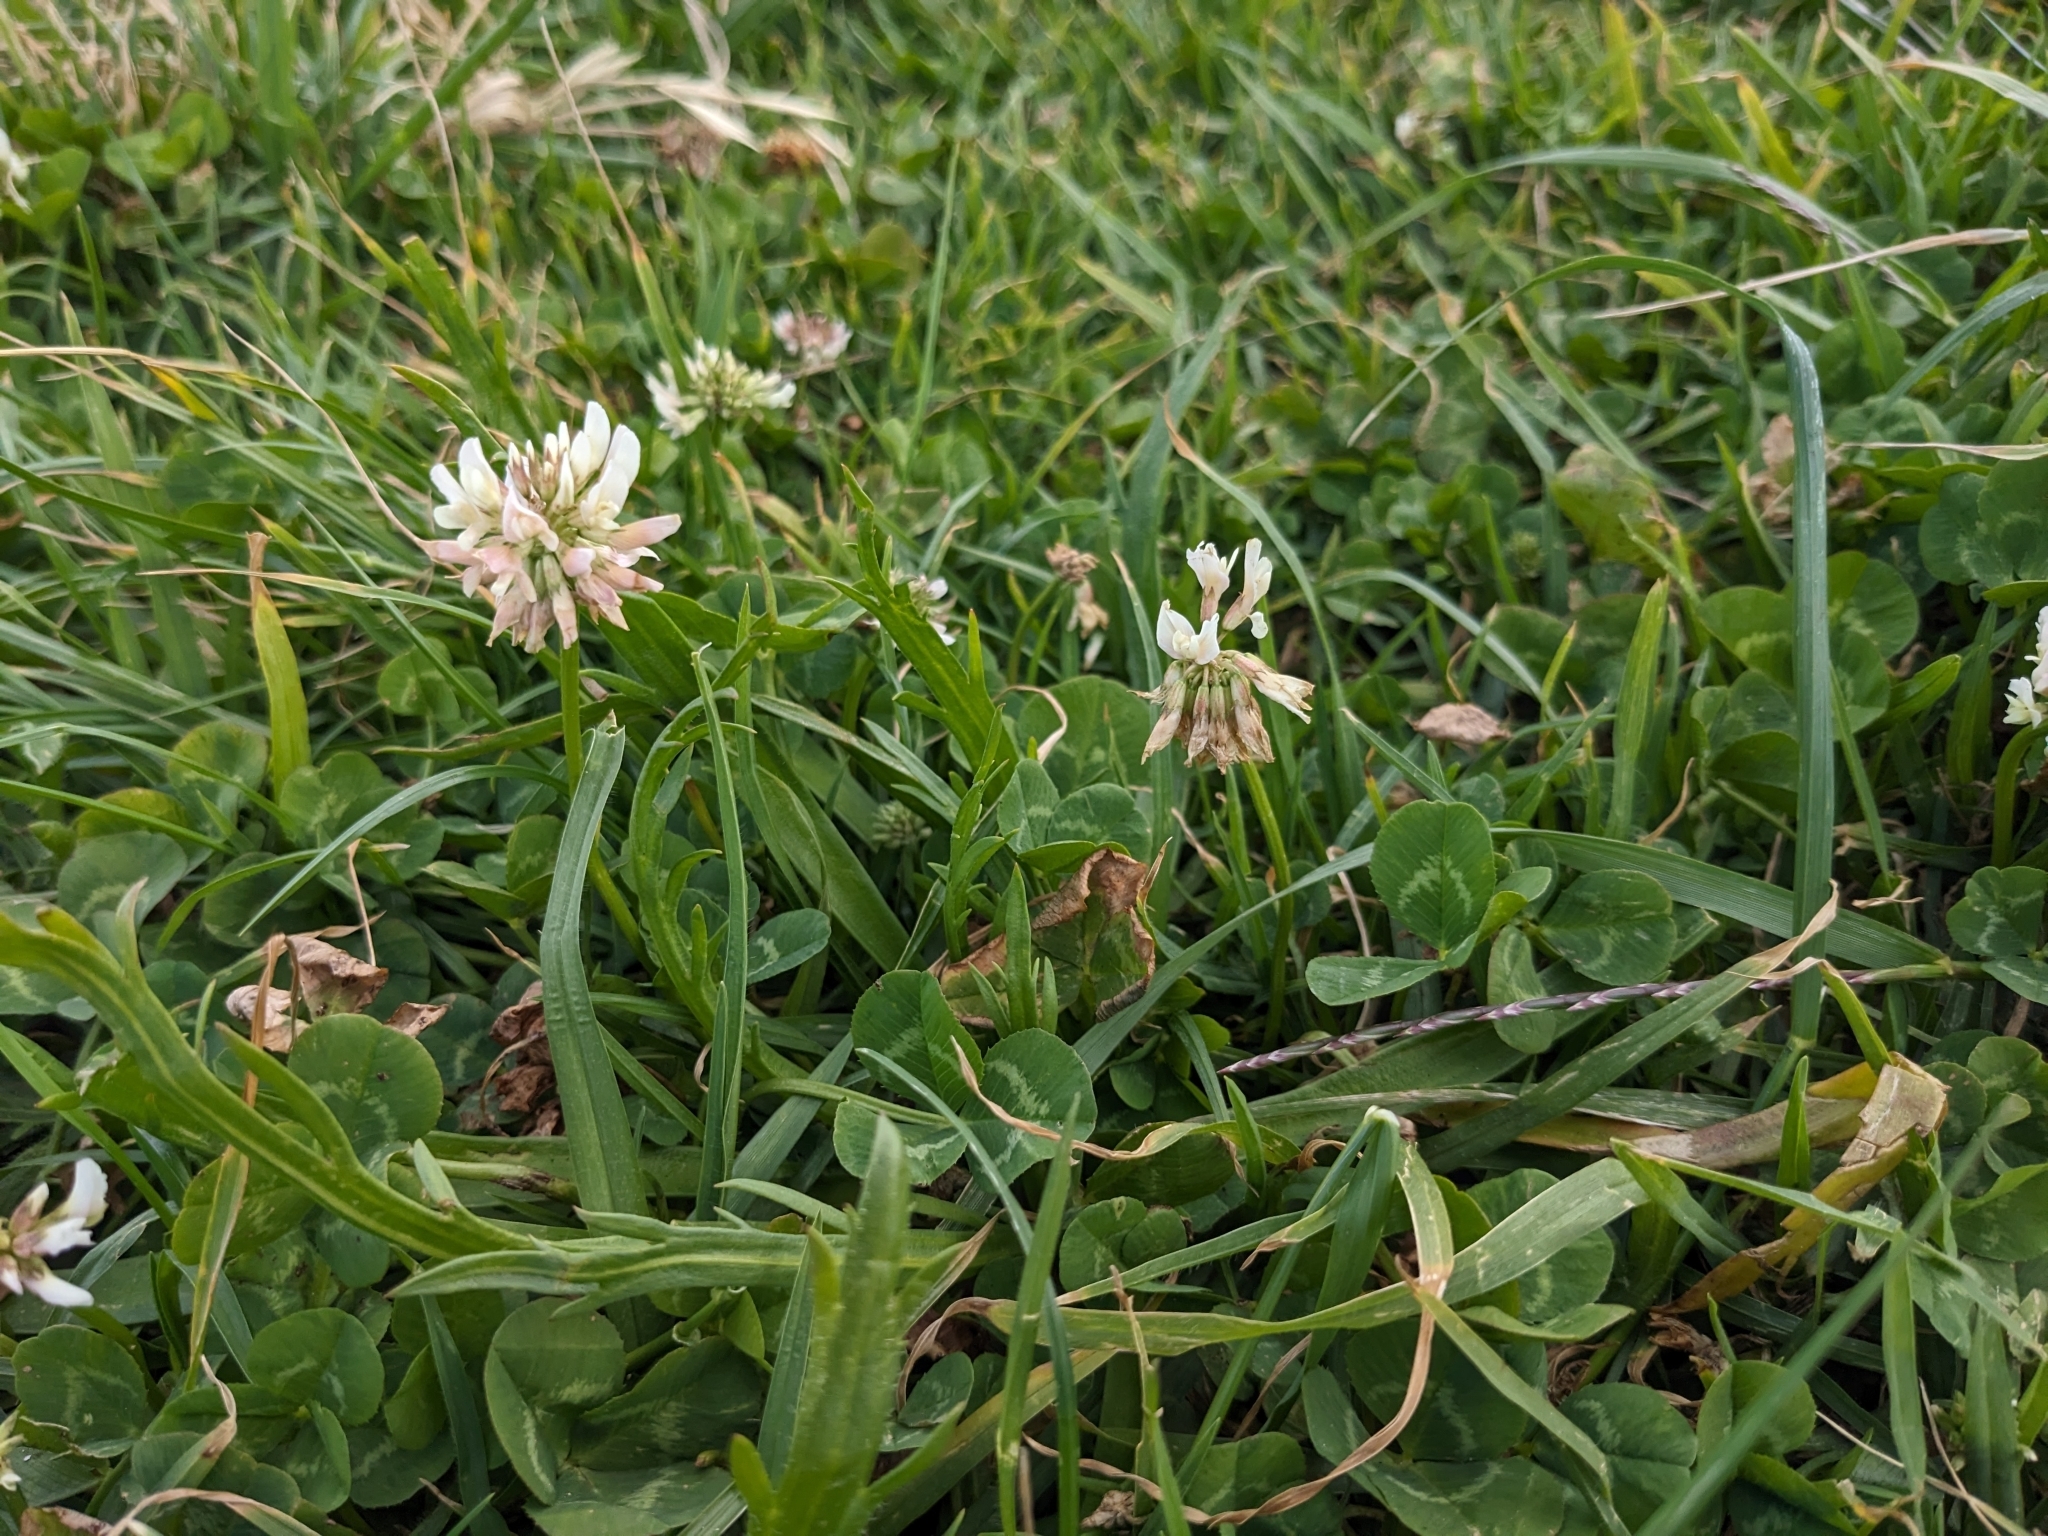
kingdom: Plantae
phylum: Tracheophyta
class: Magnoliopsida
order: Fabales
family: Fabaceae
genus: Trifolium
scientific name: Trifolium repens
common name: White clover
